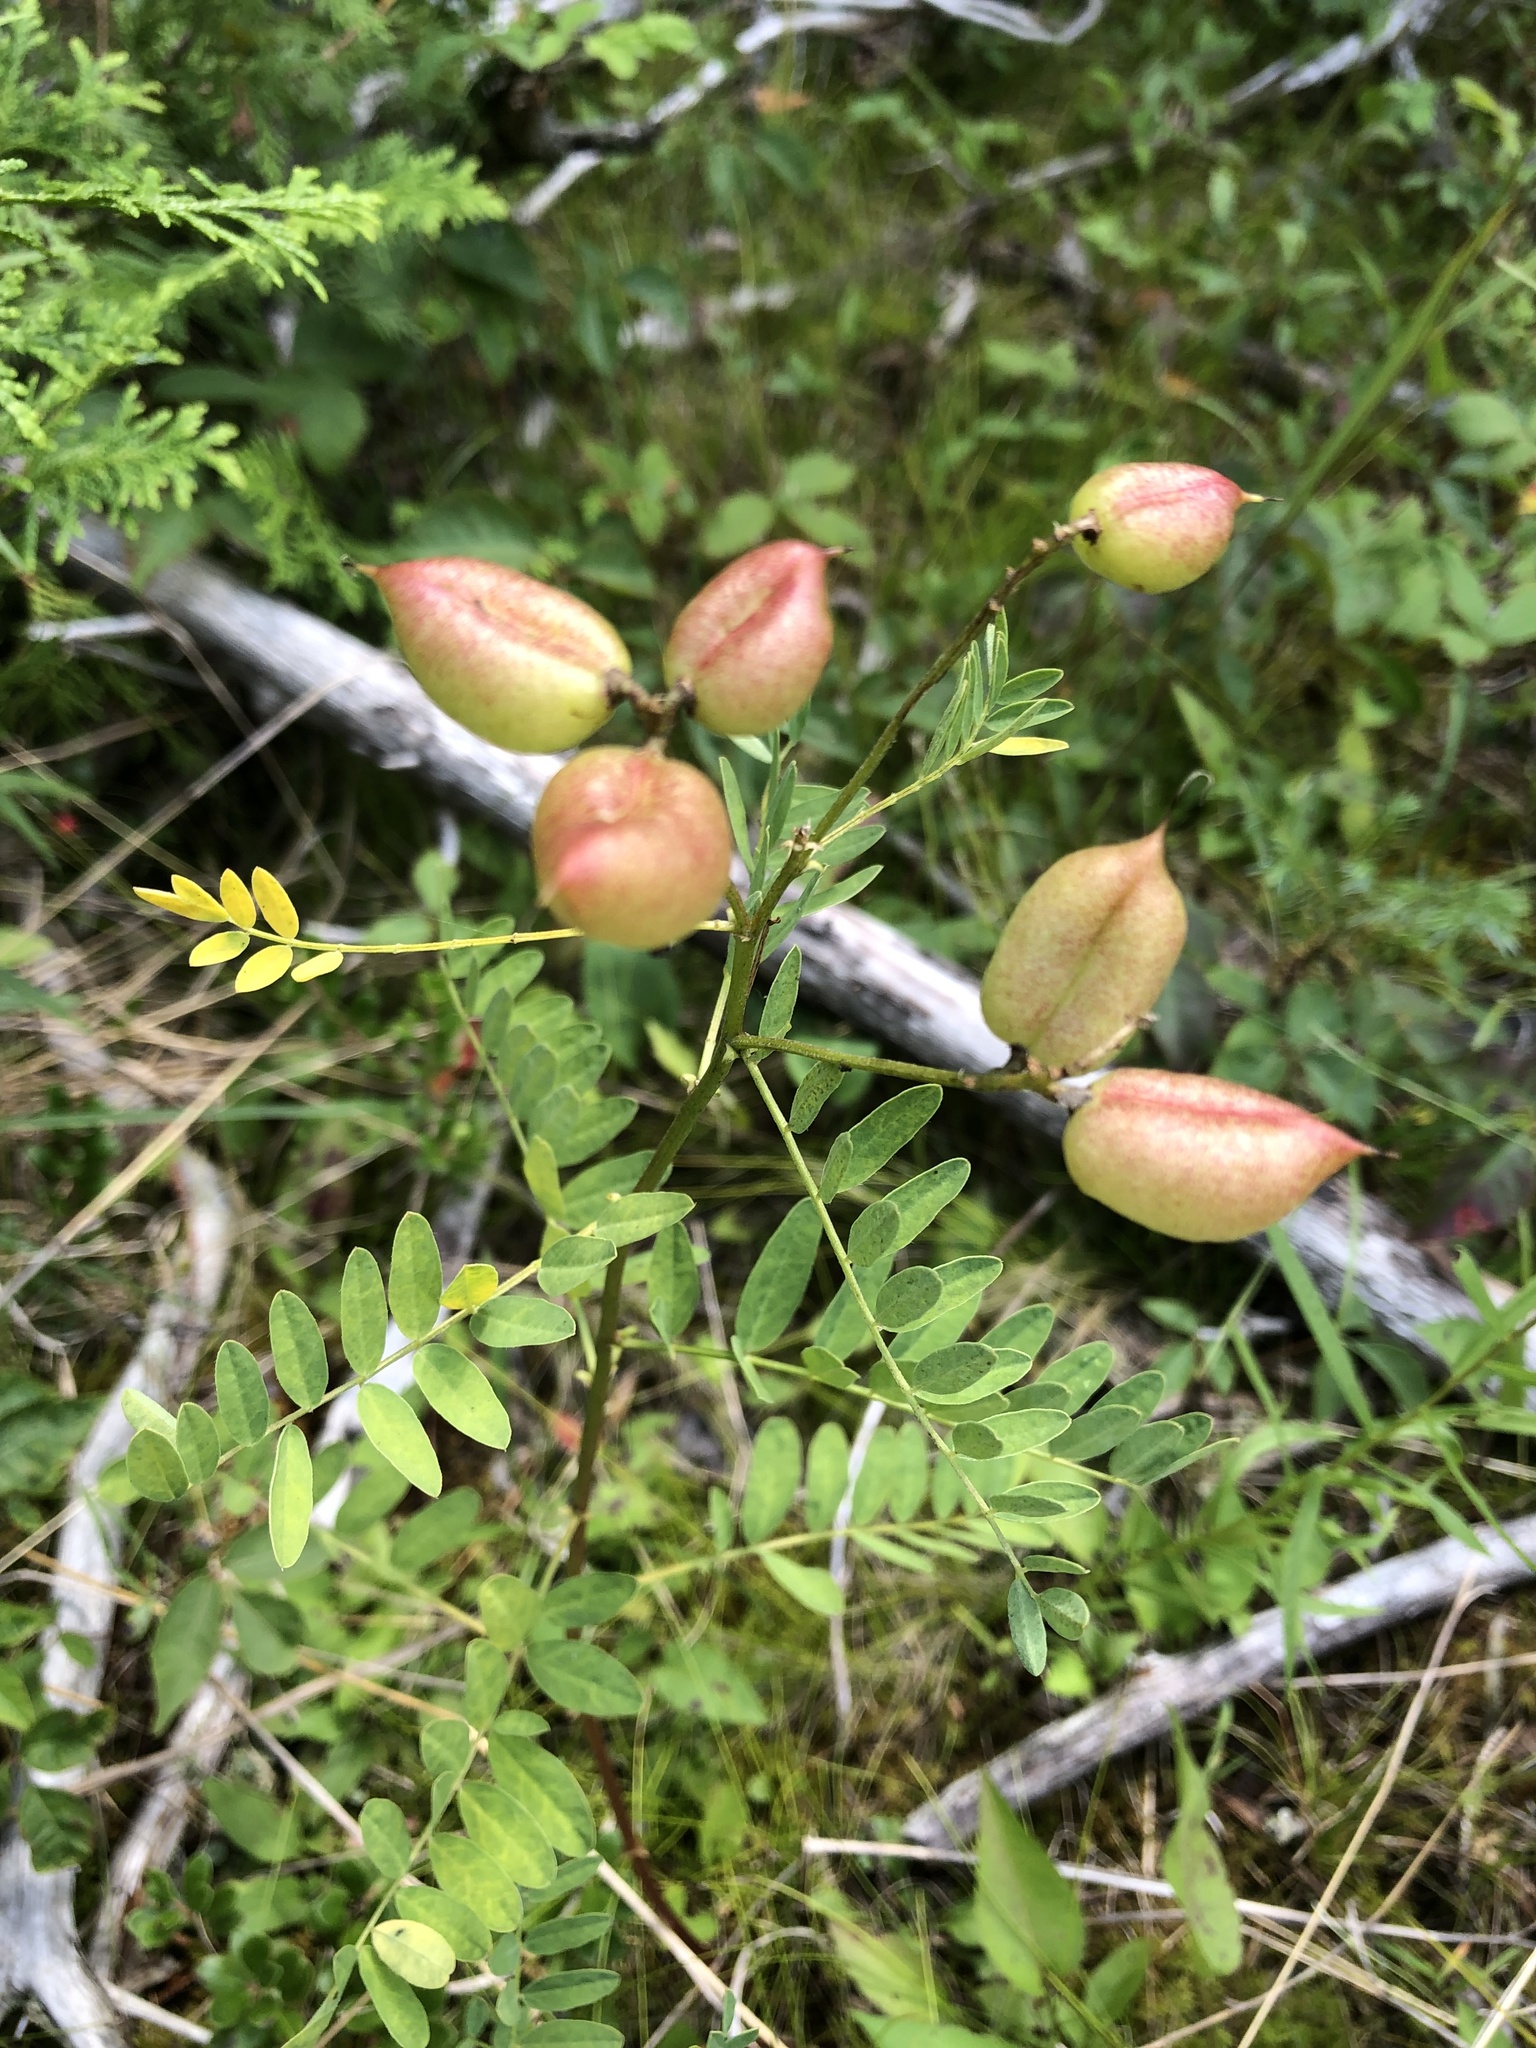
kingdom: Plantae
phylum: Tracheophyta
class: Magnoliopsida
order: Fabales
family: Fabaceae
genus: Astragalus
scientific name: Astragalus neglectus
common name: Cooper's milk-vetch
